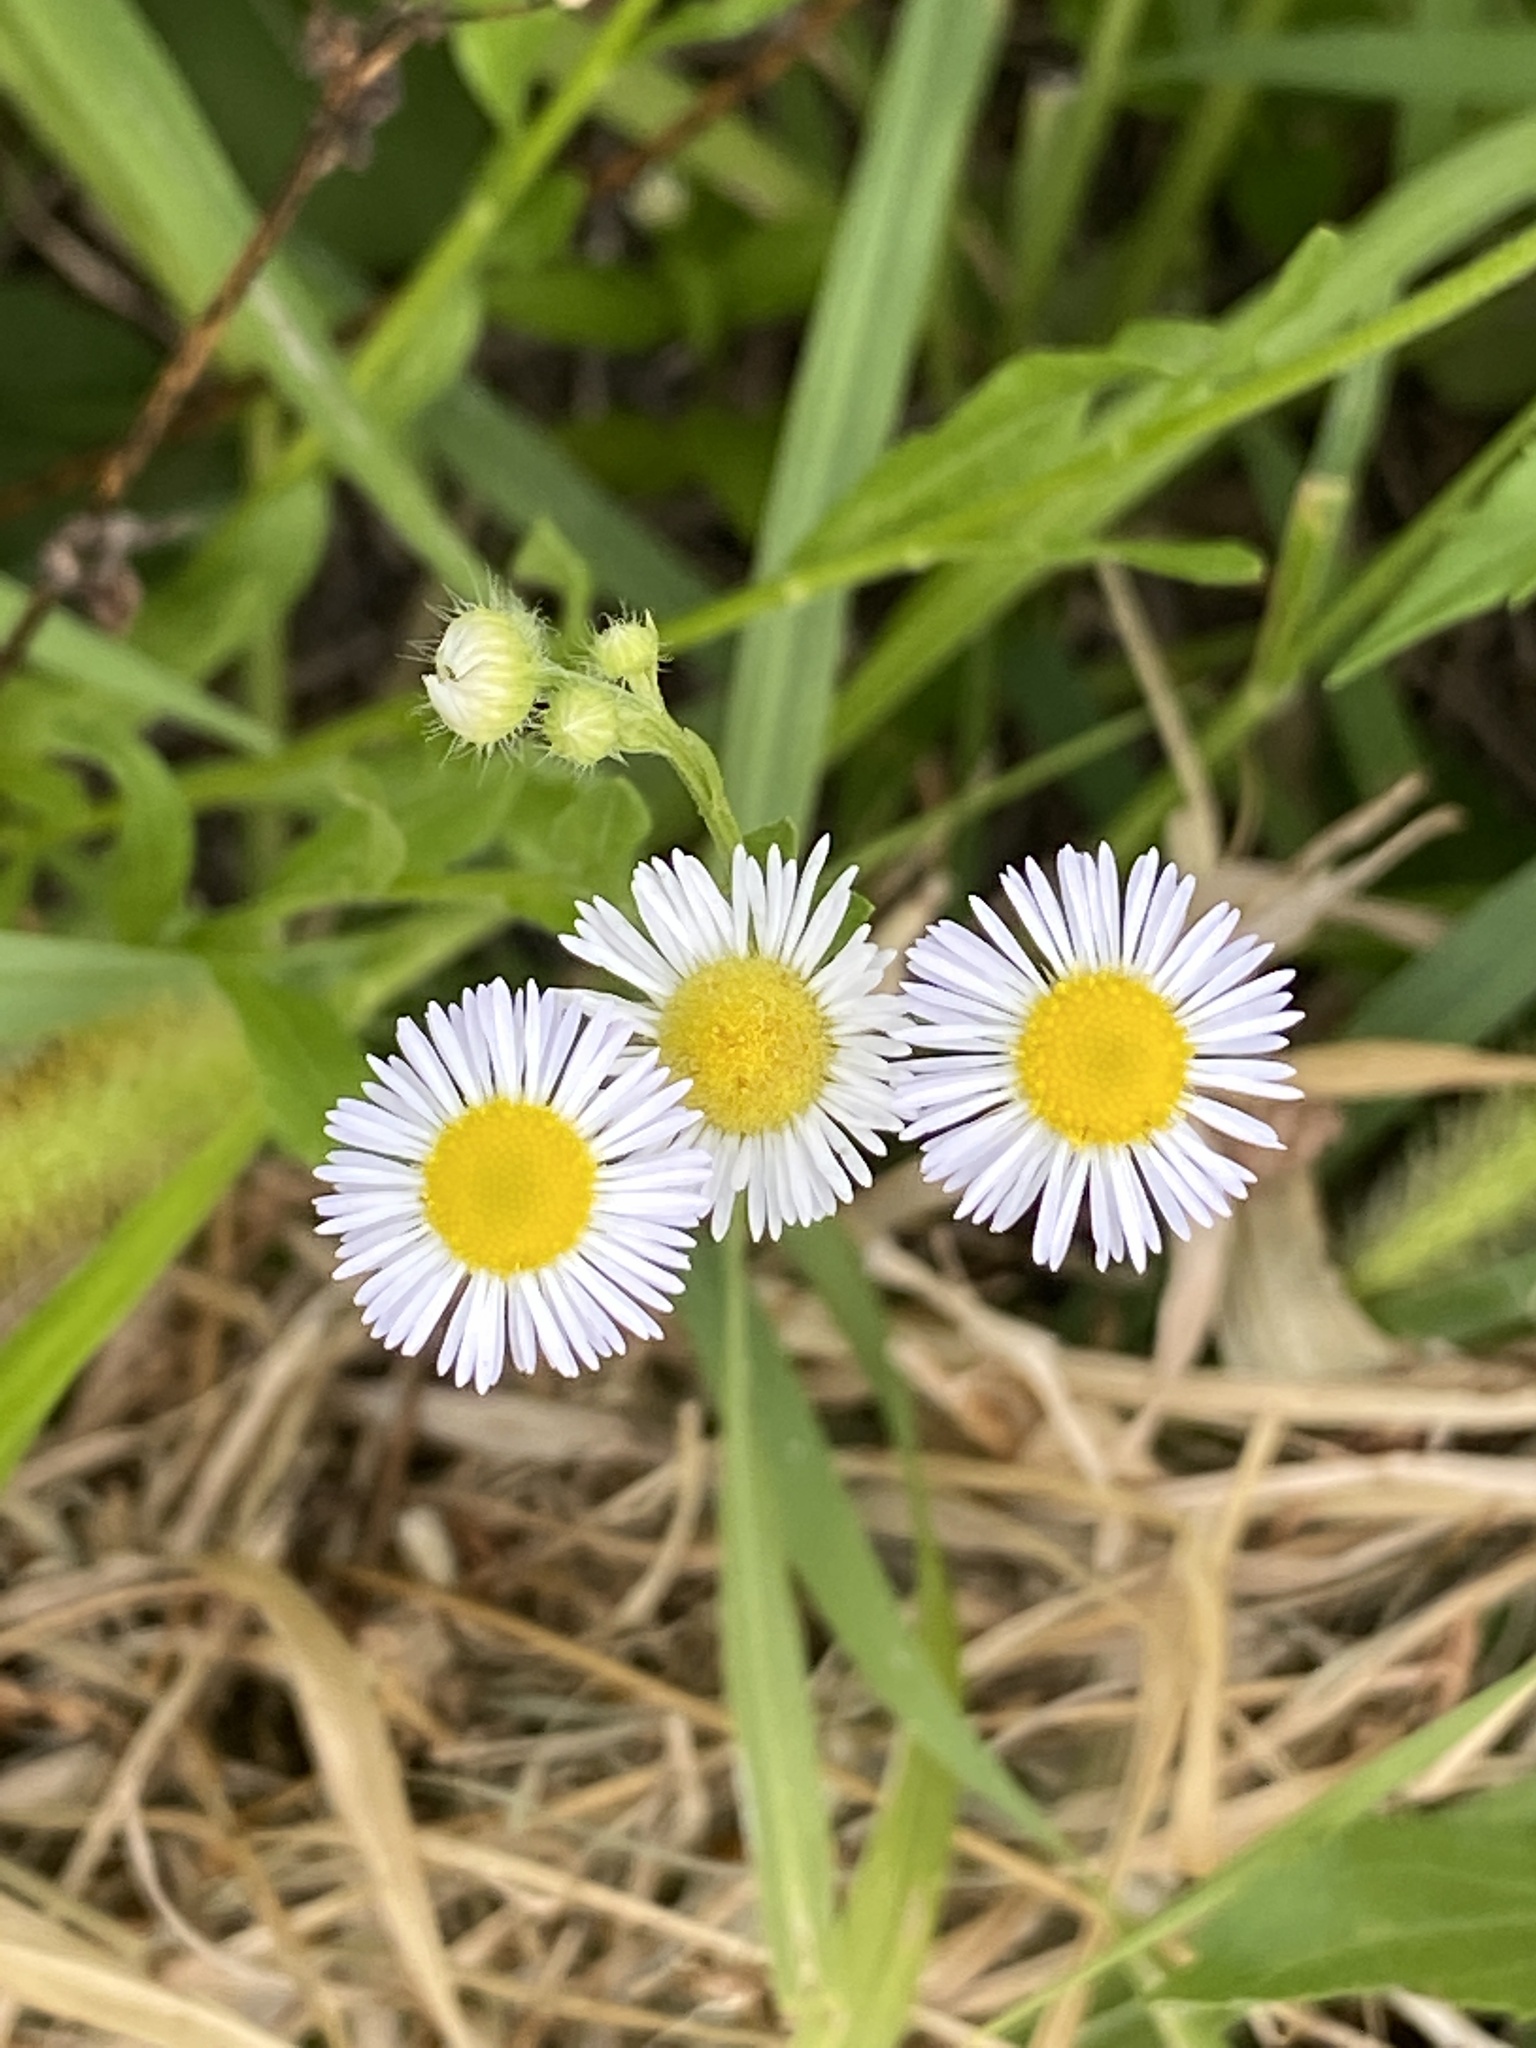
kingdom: Plantae
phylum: Tracheophyta
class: Magnoliopsida
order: Asterales
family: Asteraceae
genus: Erigeron
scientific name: Erigeron strigosus
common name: Common eastern fleabane
